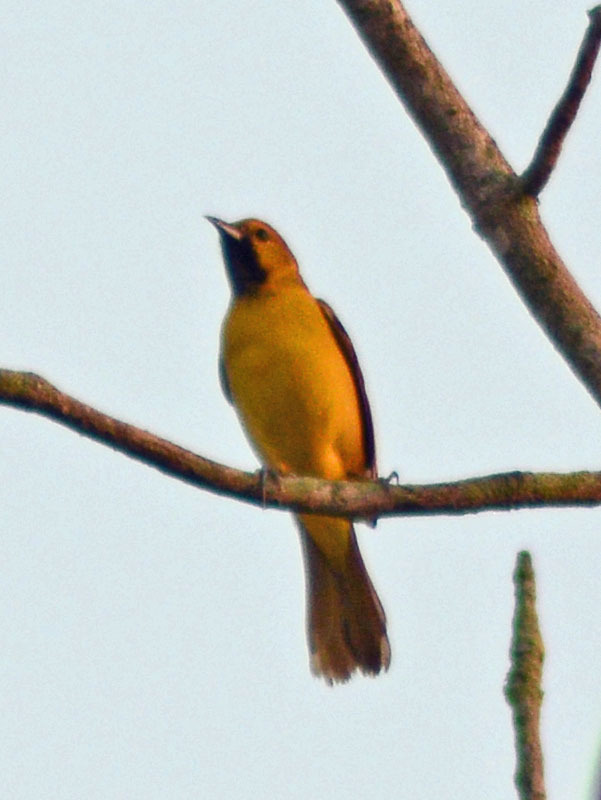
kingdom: Animalia
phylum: Chordata
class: Aves
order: Passeriformes
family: Icteridae
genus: Icterus
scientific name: Icterus cucullatus
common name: Hooded oriole
